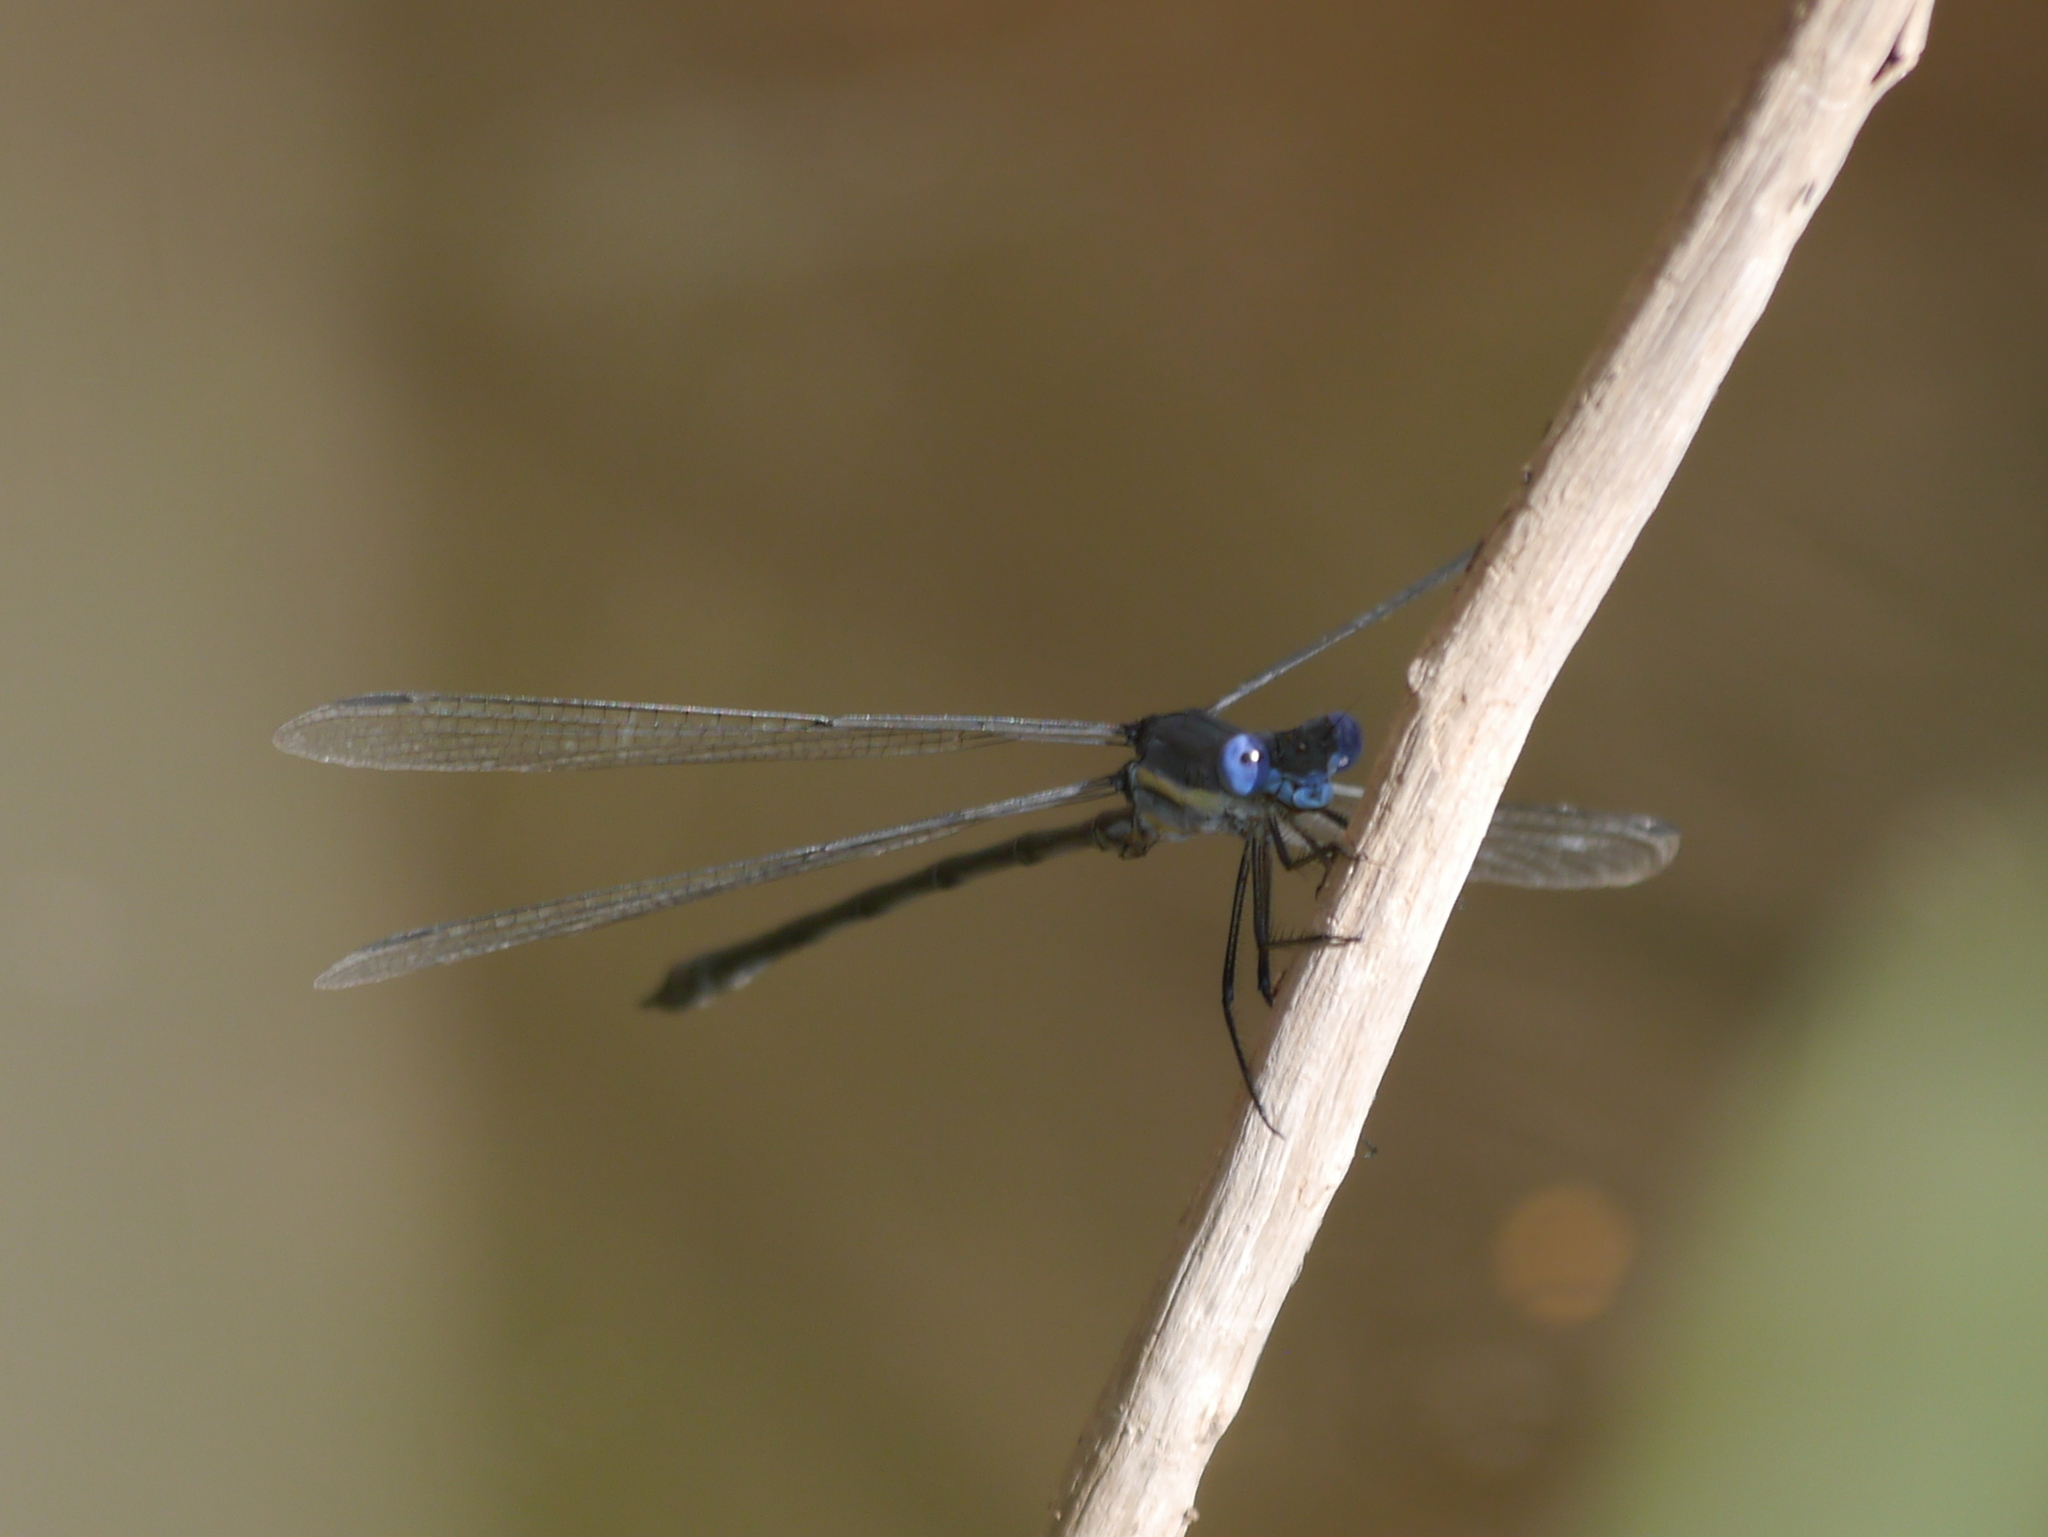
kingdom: Animalia
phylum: Arthropoda
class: Insecta
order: Odonata
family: Lestidae
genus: Archilestes
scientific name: Archilestes grandis
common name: Great spreadwing
